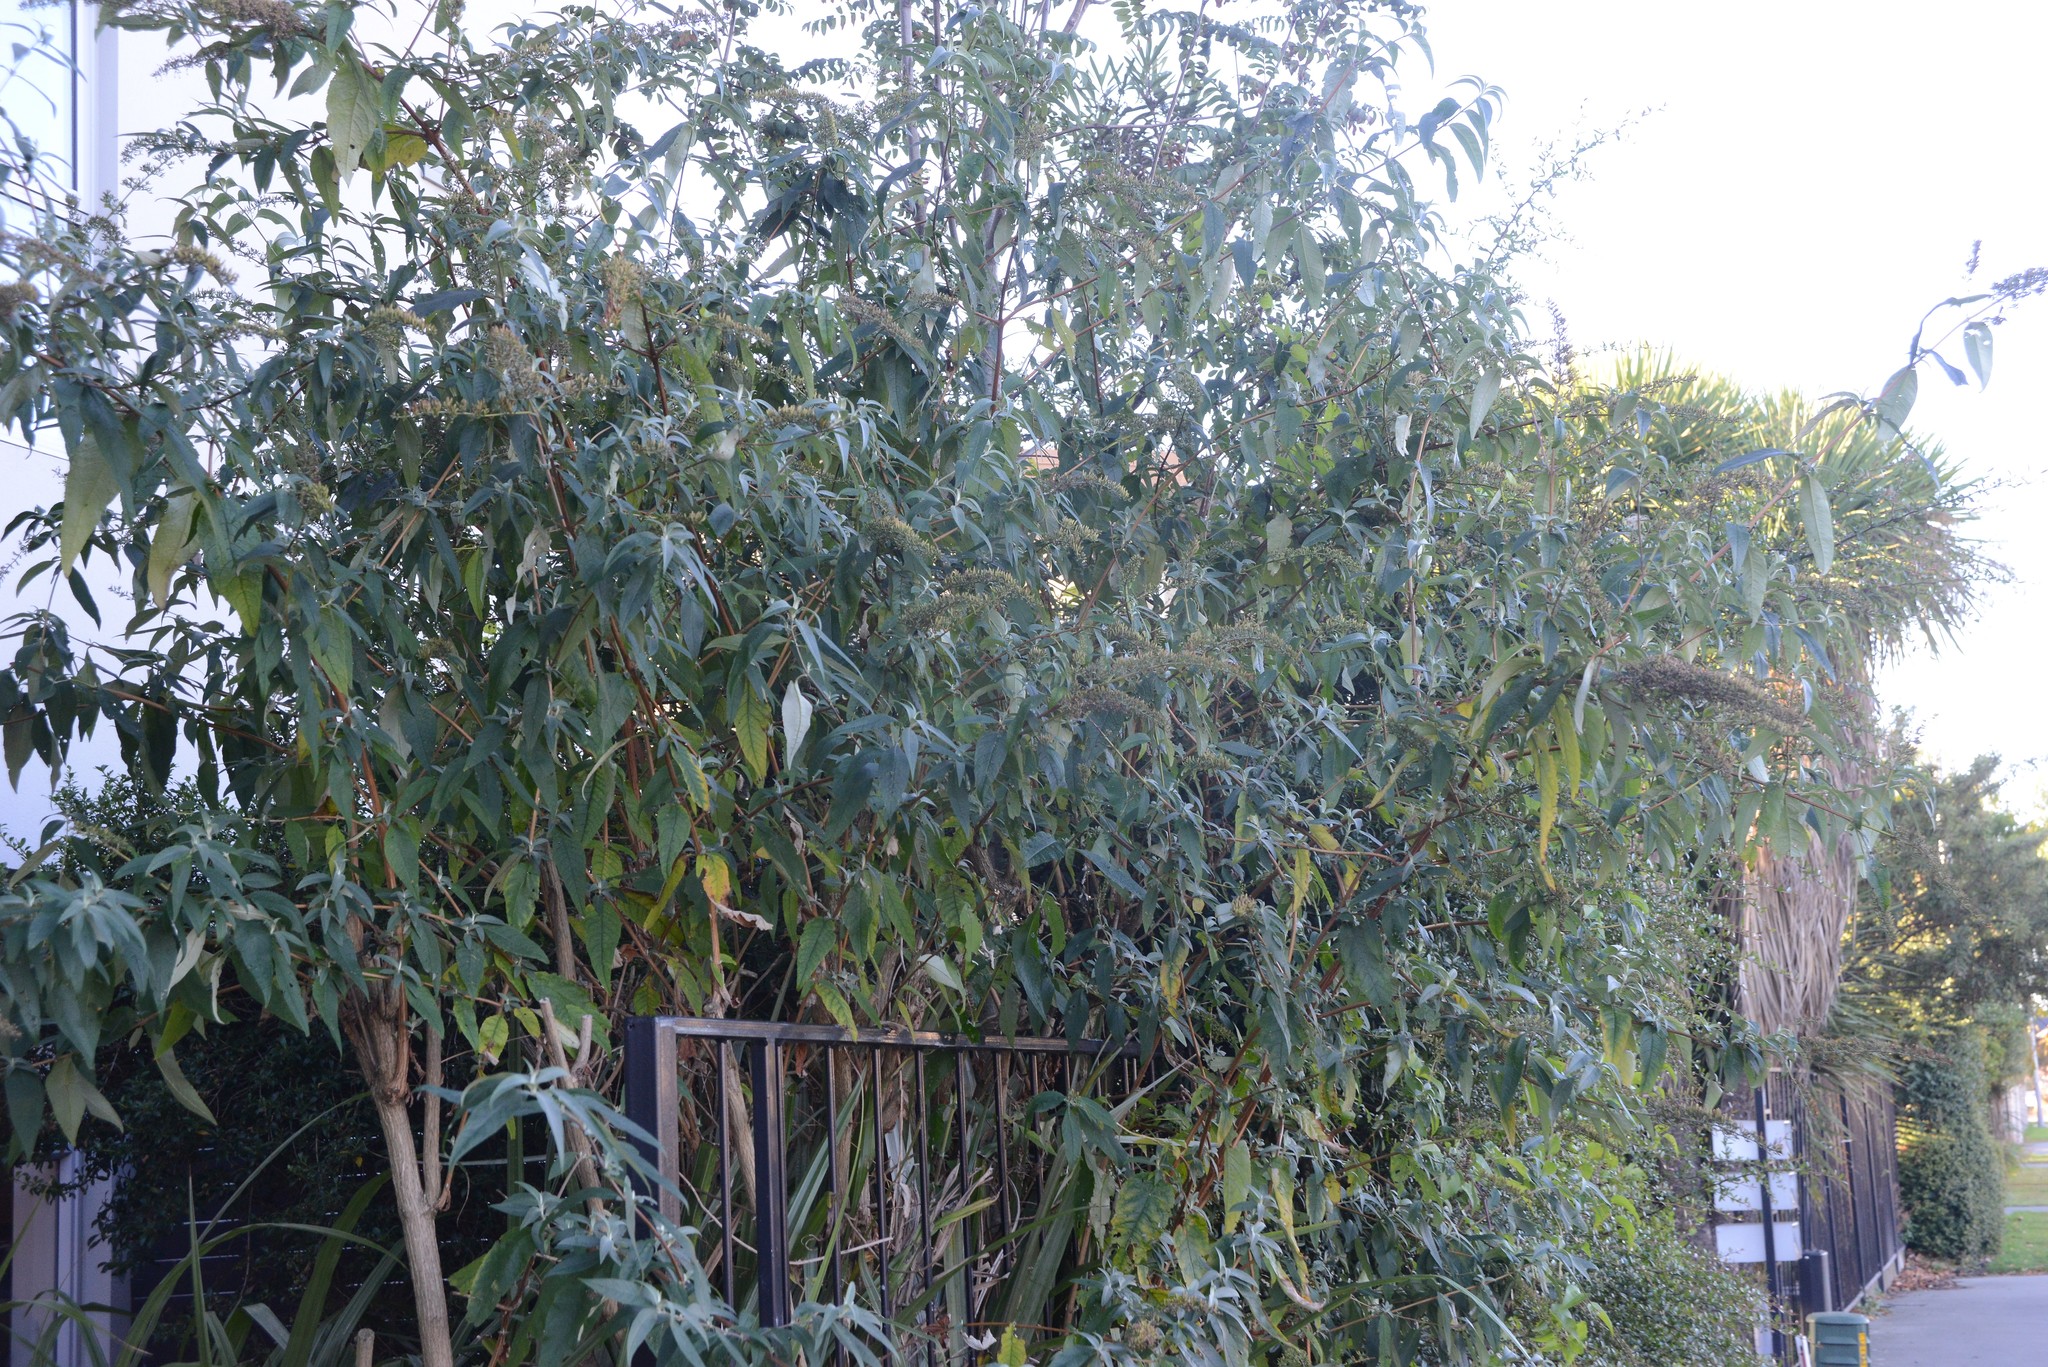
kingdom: Plantae
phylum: Tracheophyta
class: Magnoliopsida
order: Lamiales
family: Scrophulariaceae
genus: Buddleja
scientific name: Buddleja davidii
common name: Butterfly-bush
